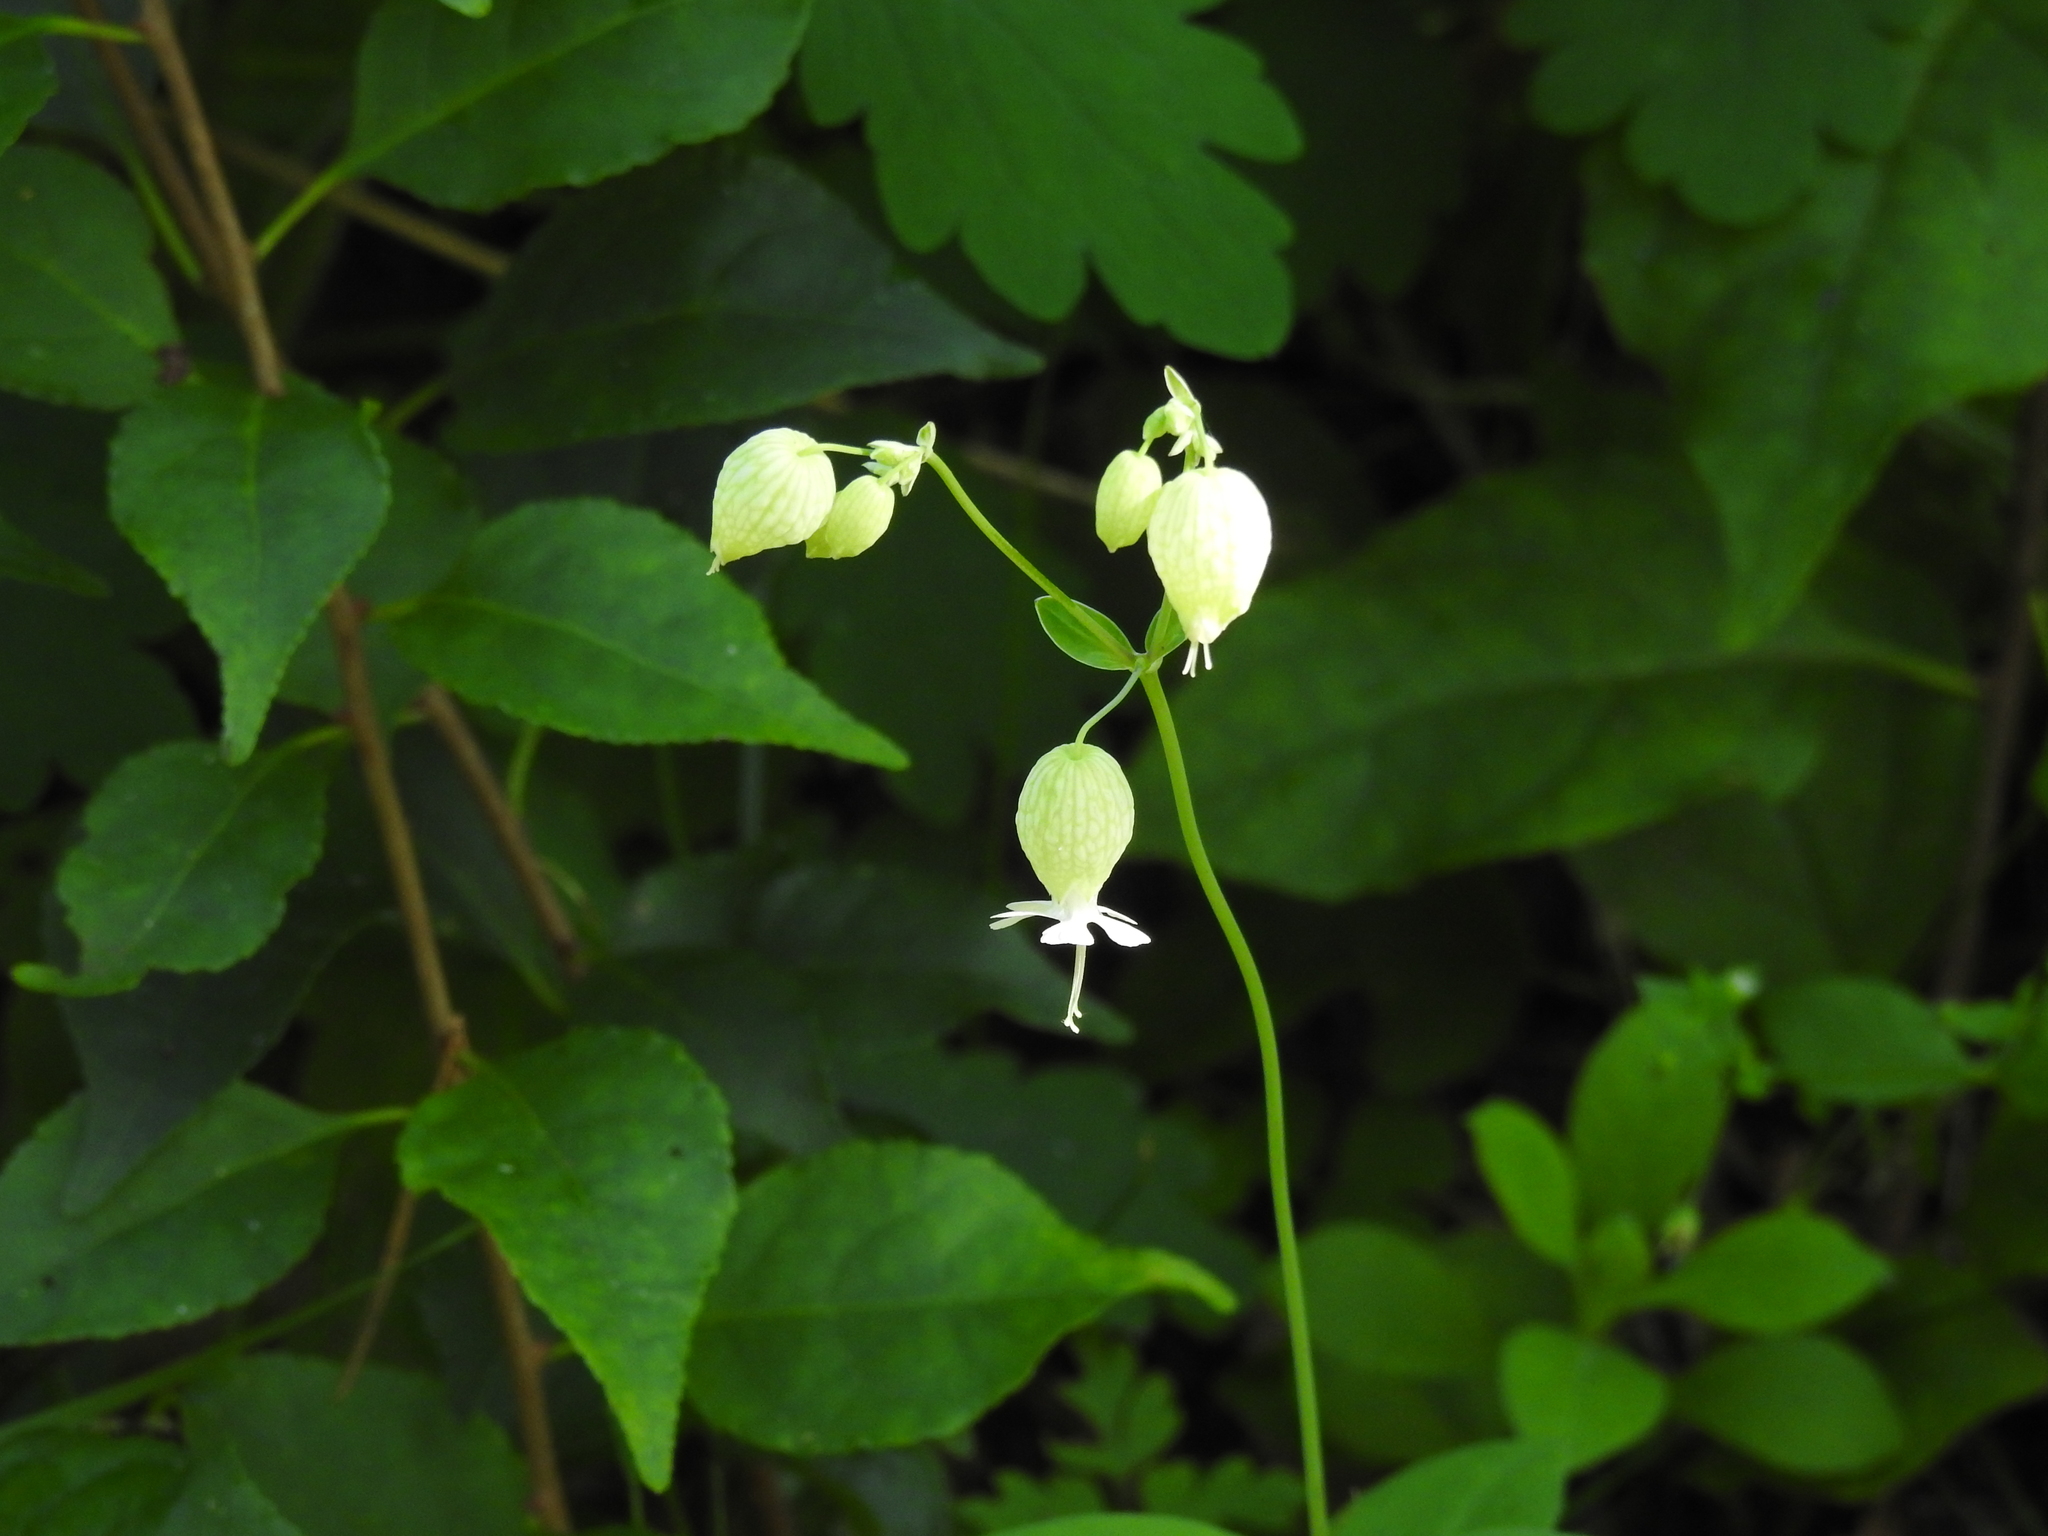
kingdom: Plantae
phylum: Tracheophyta
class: Magnoliopsida
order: Caryophyllales
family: Caryophyllaceae
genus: Silene
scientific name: Silene vulgaris
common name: Bladder campion
